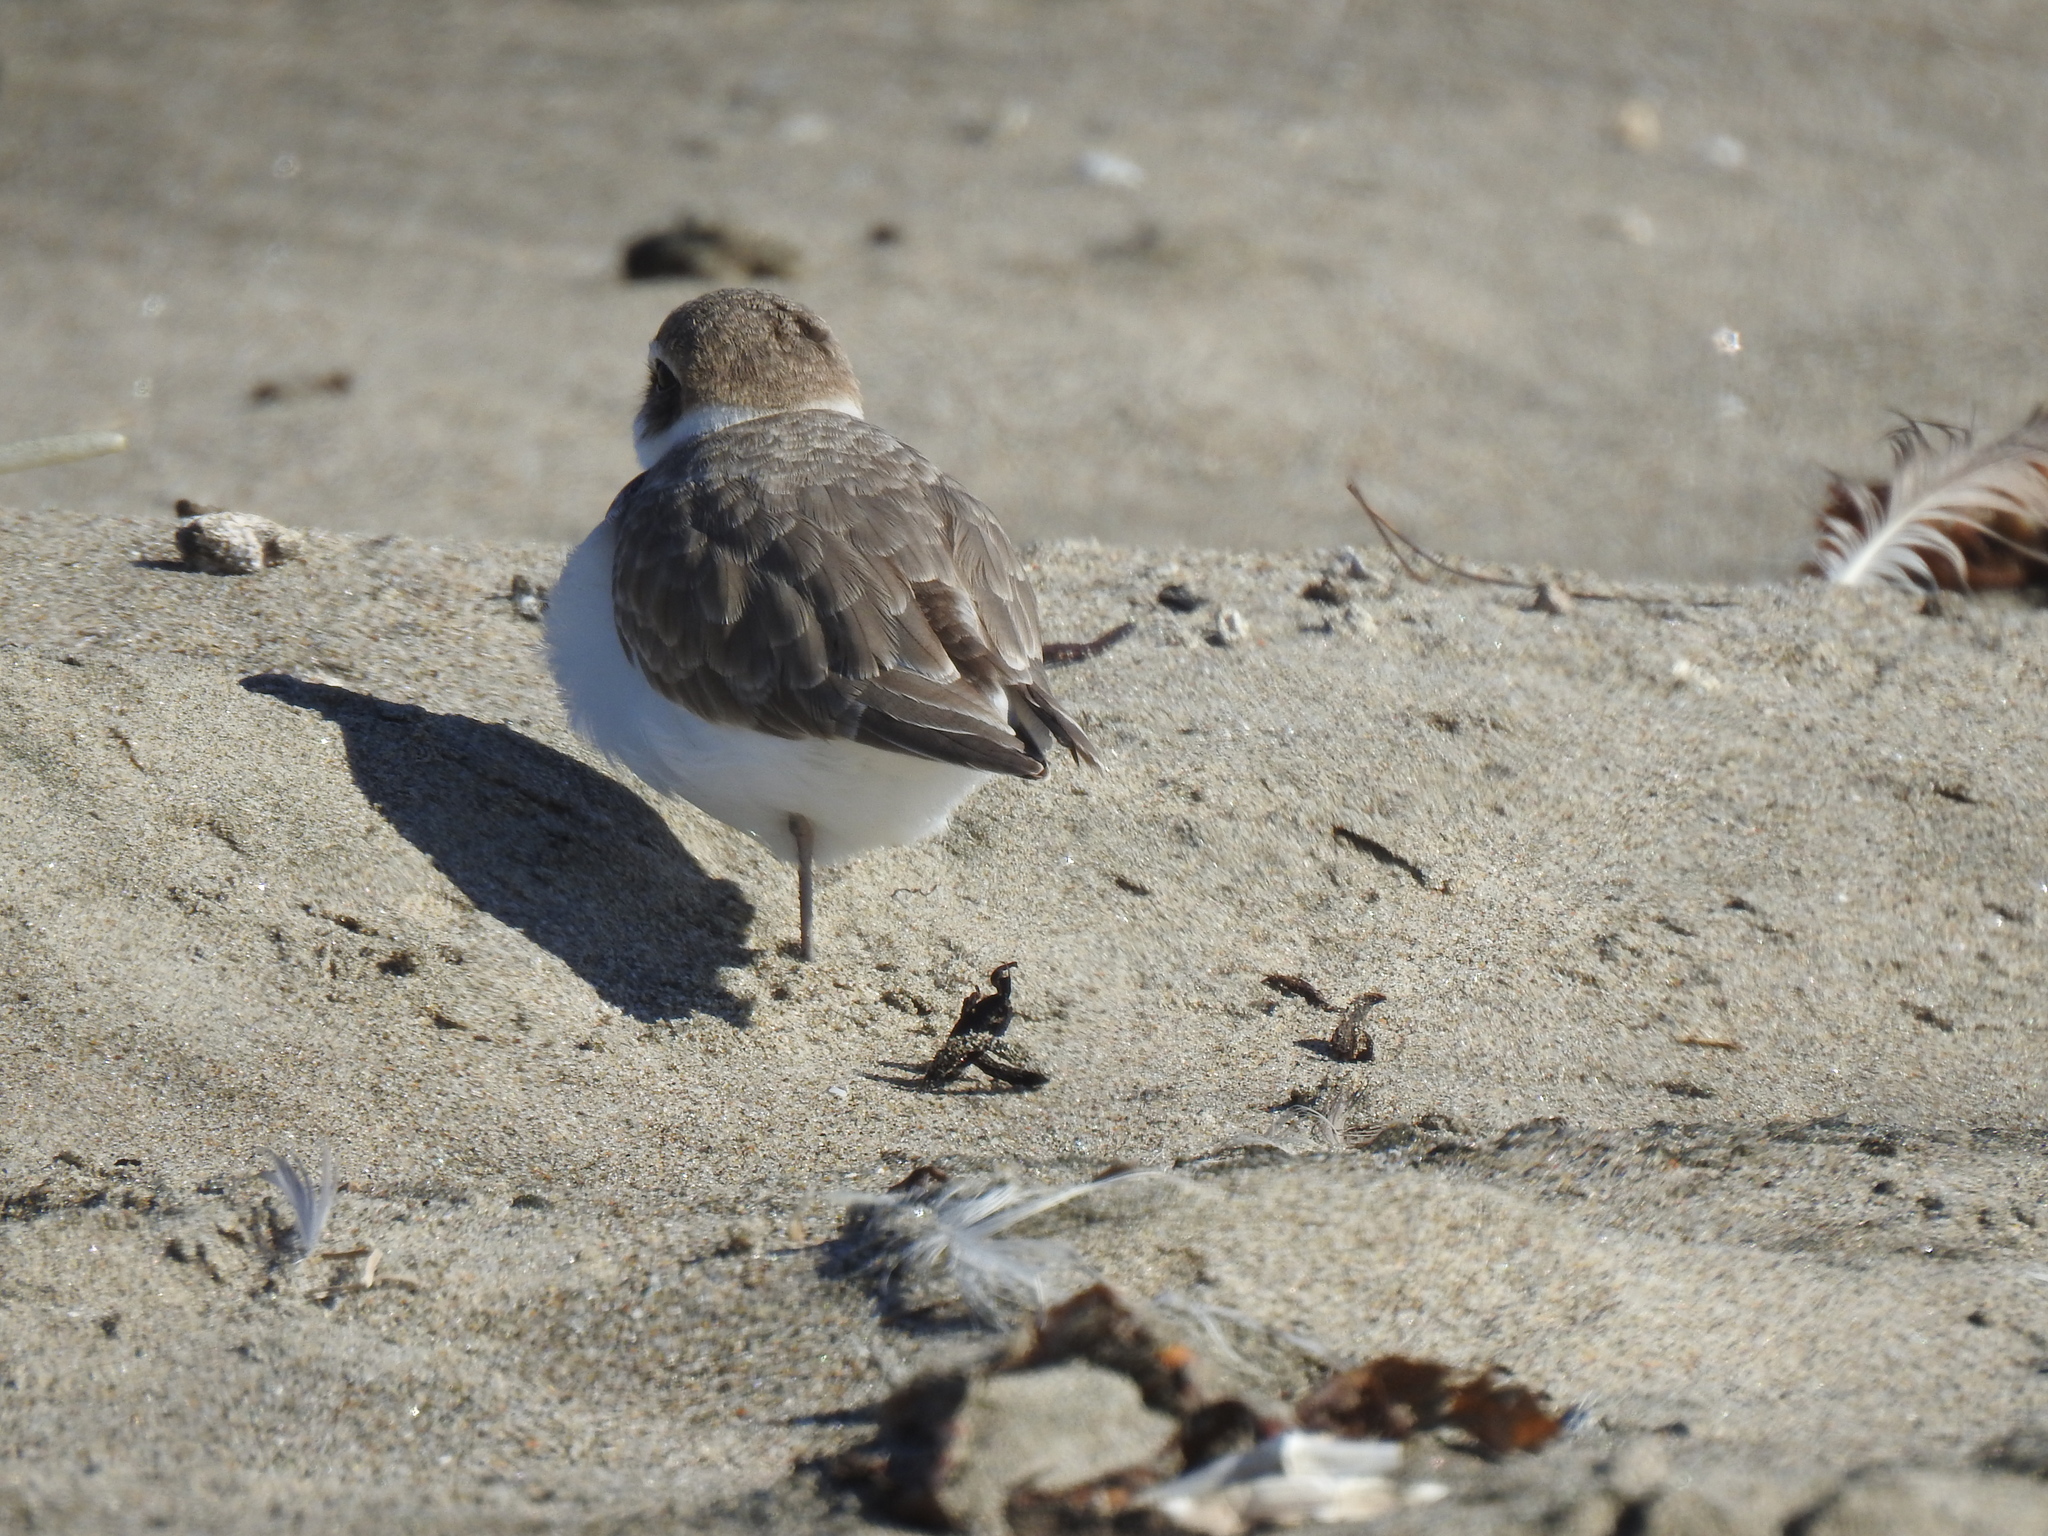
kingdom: Animalia
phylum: Chordata
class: Aves
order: Charadriiformes
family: Charadriidae
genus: Anarhynchus
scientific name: Anarhynchus
